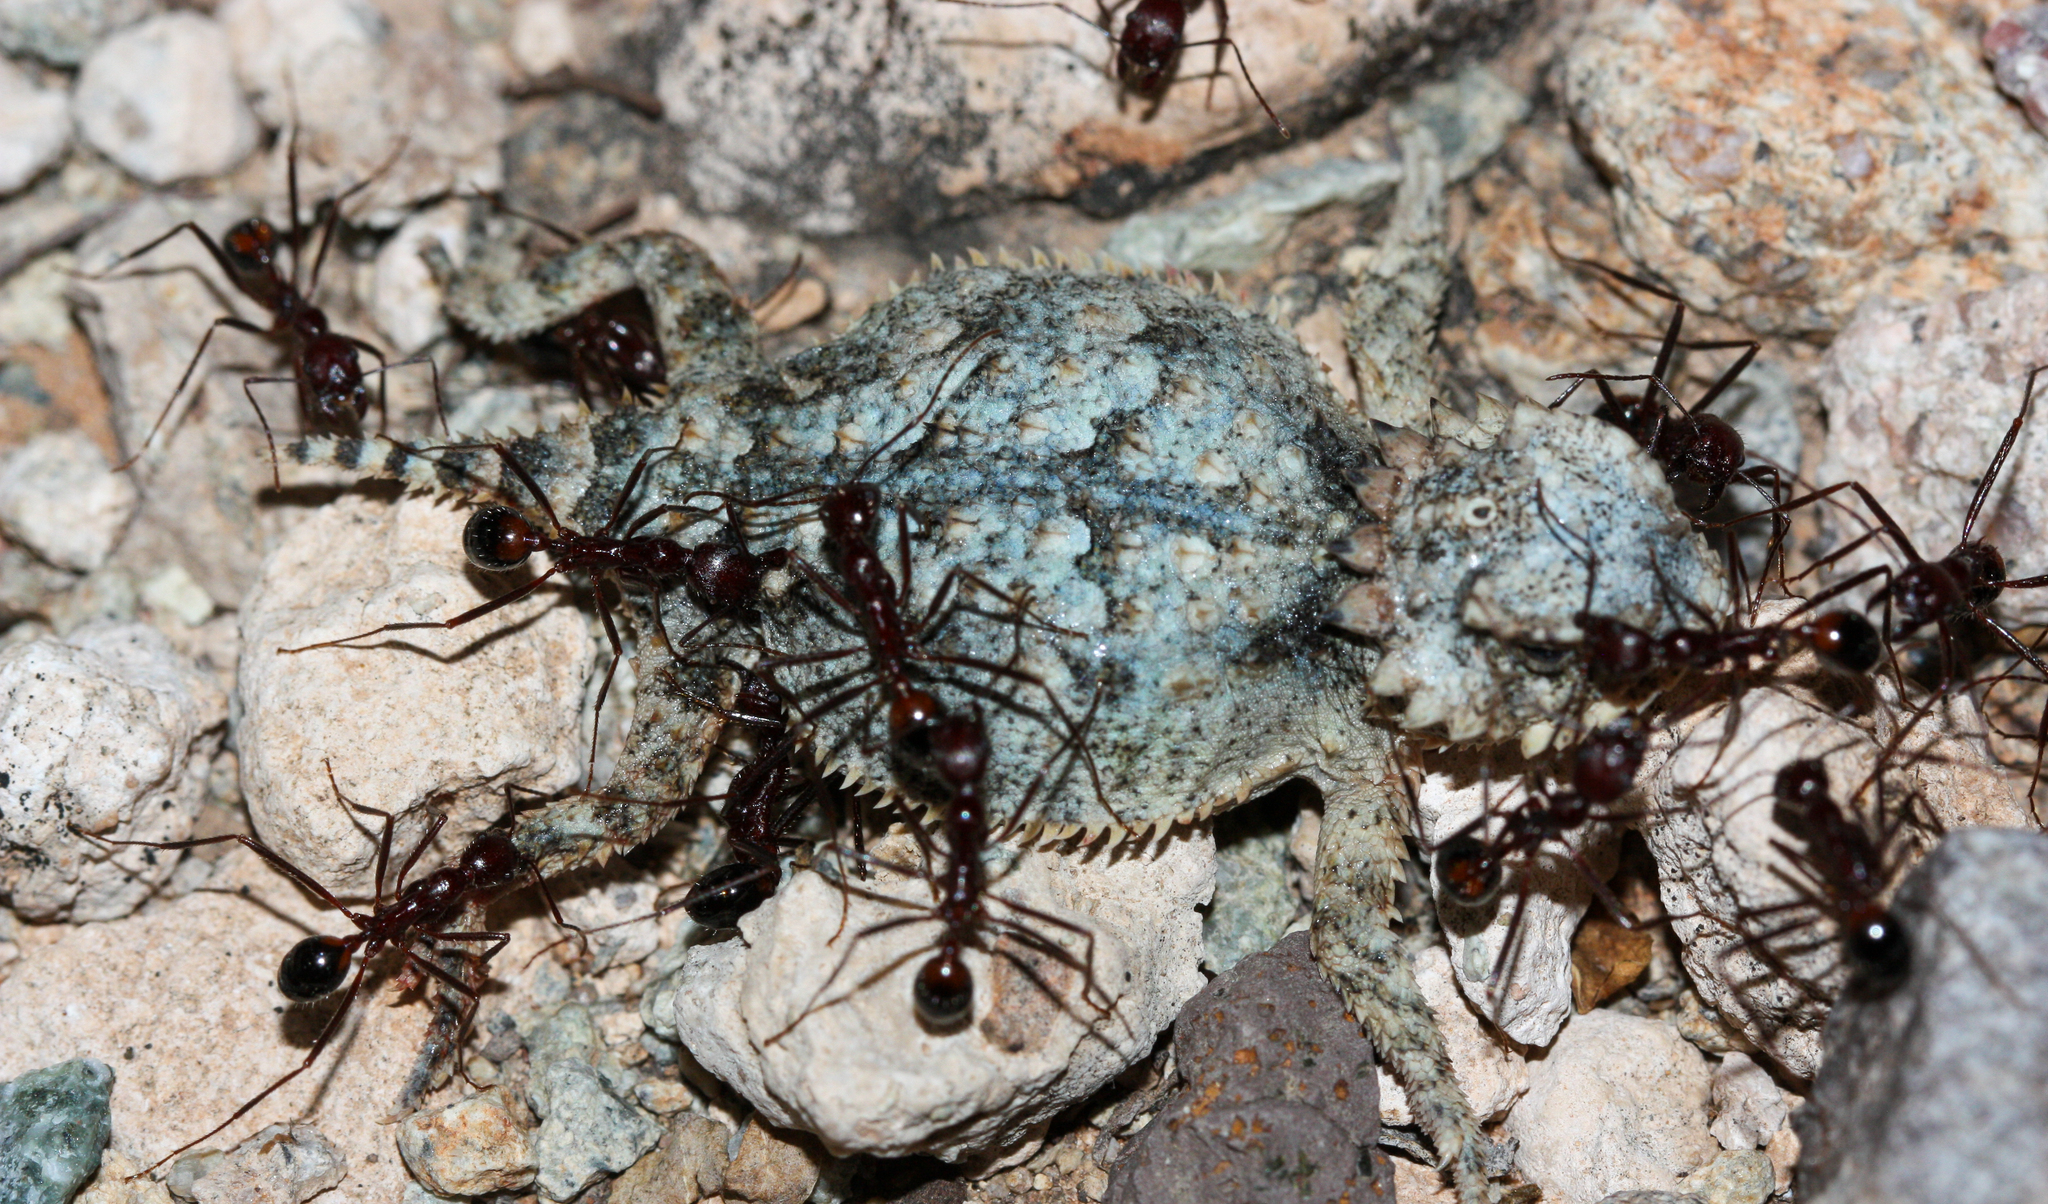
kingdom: Animalia
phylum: Arthropoda
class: Insecta
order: Hymenoptera
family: Formicidae
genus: Novomessor
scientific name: Novomessor cockerelli
